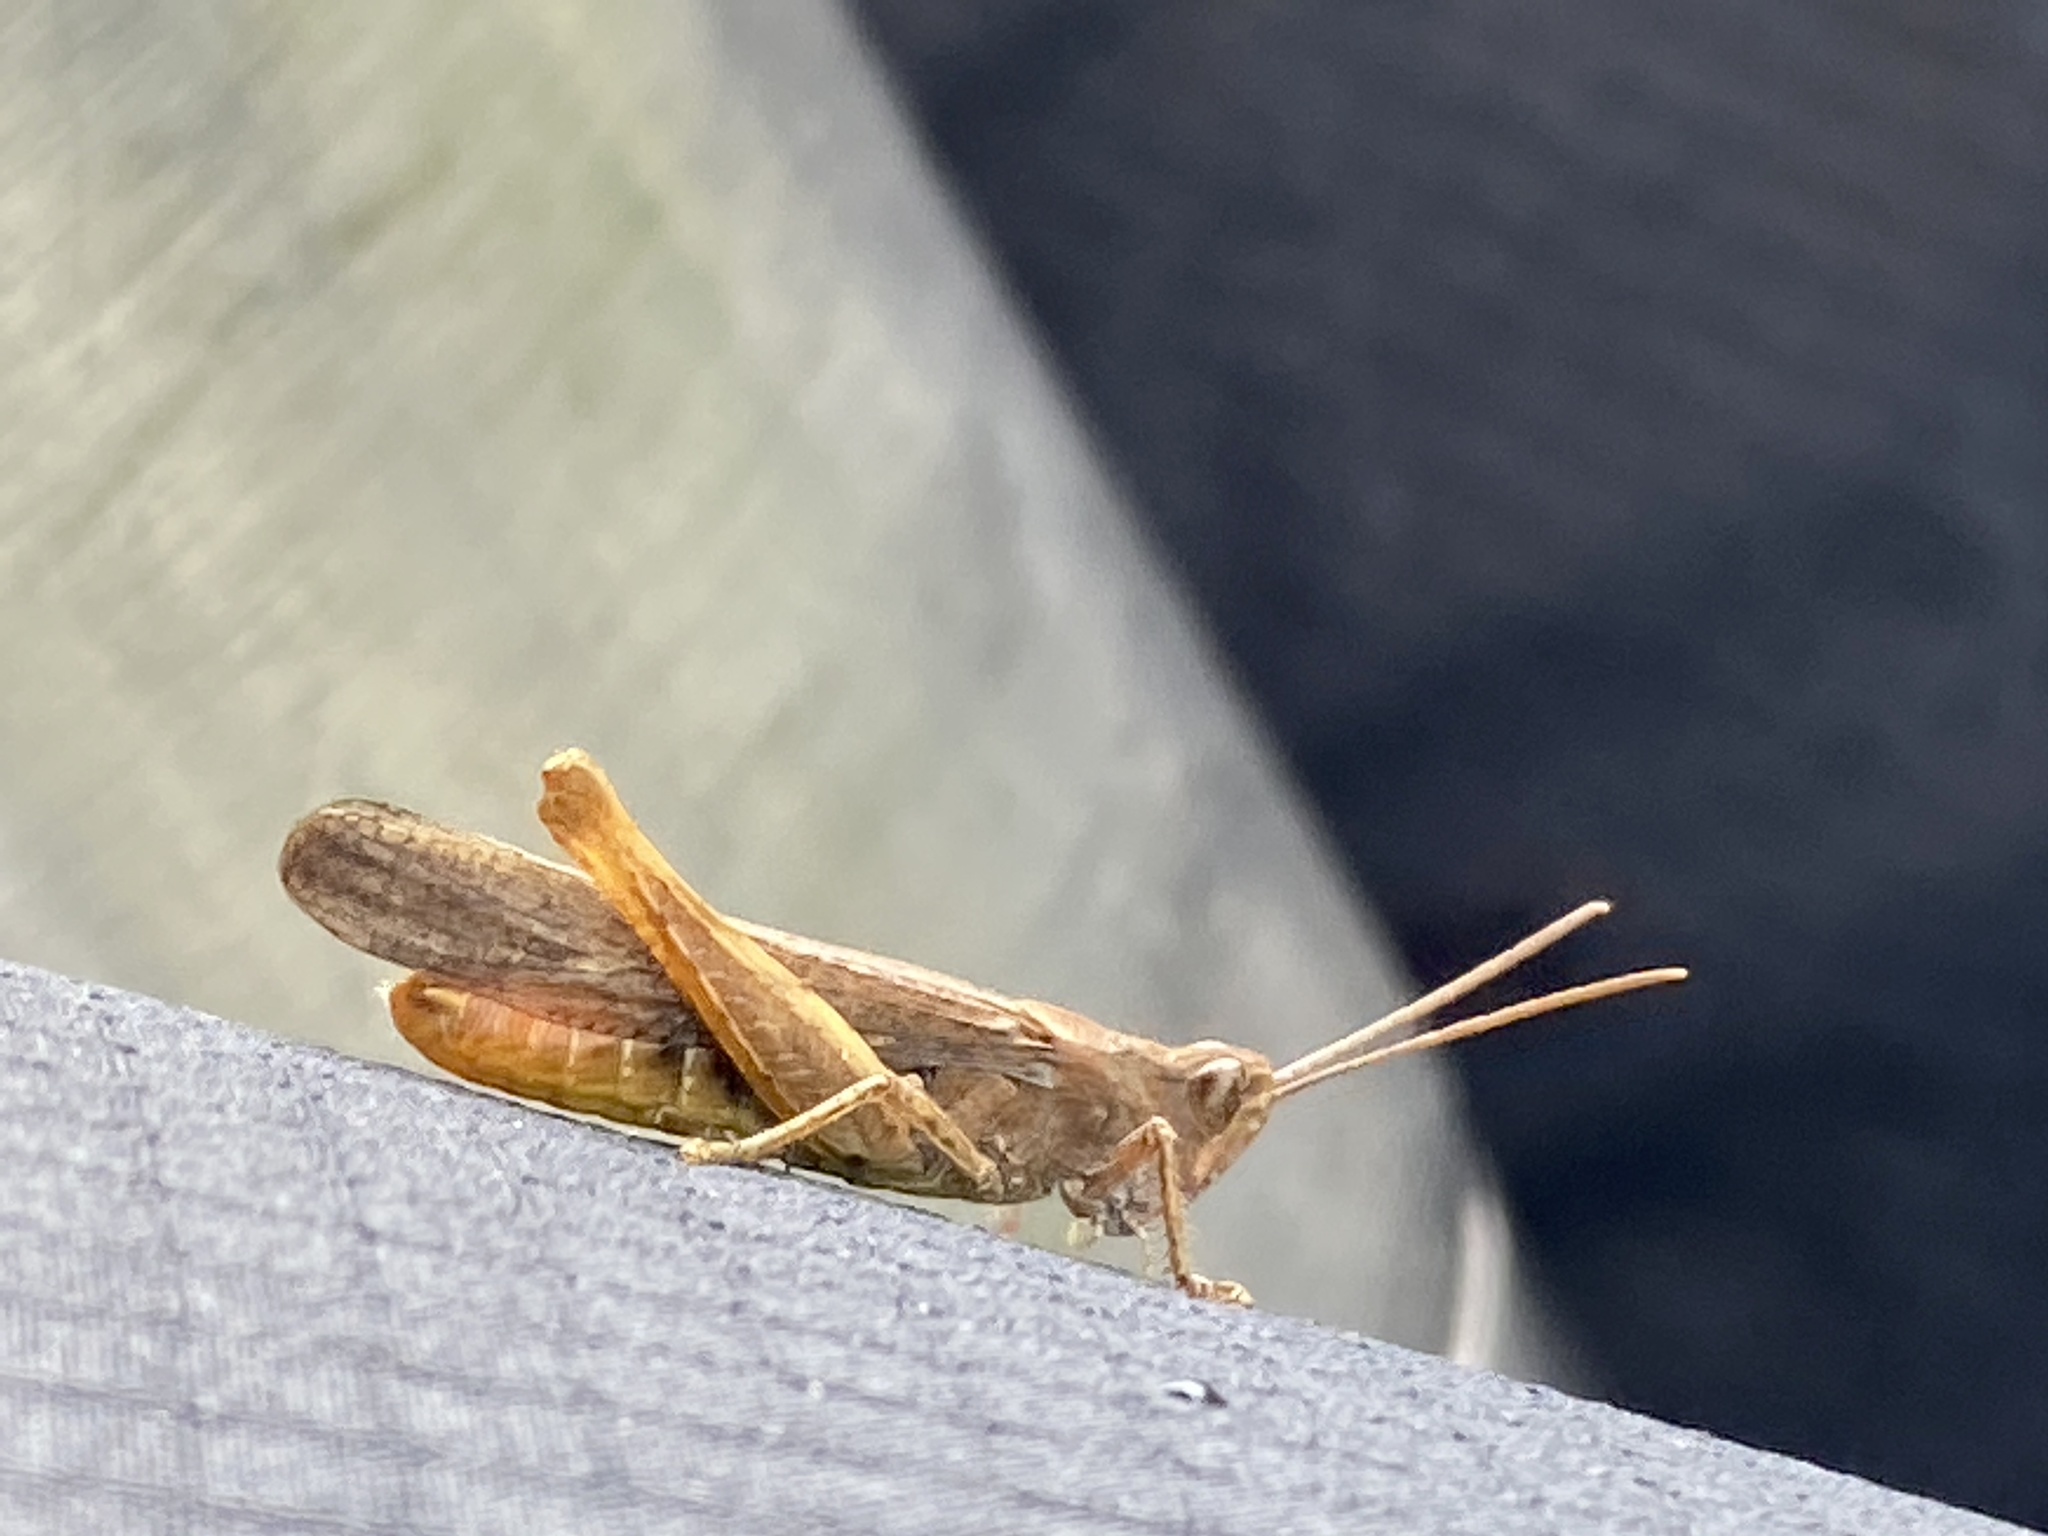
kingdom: Animalia
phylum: Arthropoda
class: Insecta
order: Orthoptera
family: Acrididae
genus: Chorthippus
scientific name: Chorthippus brunneus
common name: Field grasshopper
